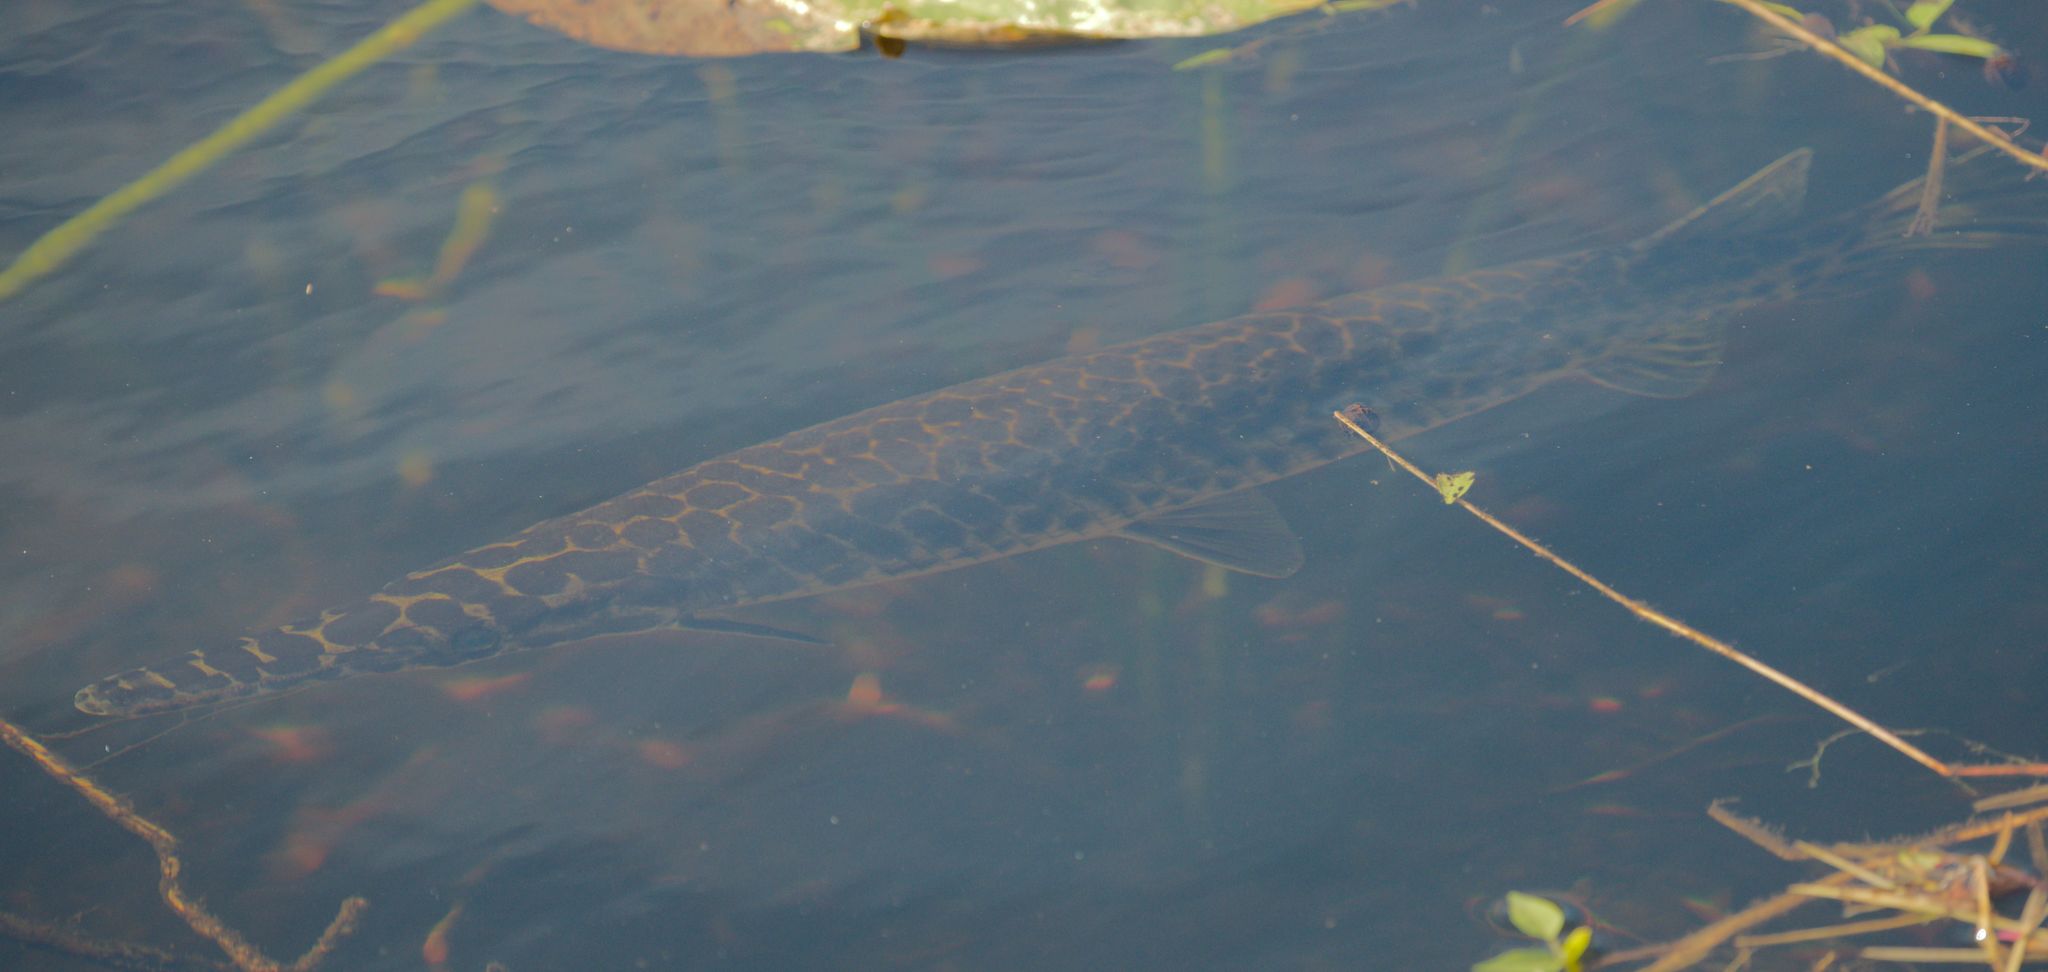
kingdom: Animalia
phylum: Chordata
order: Lepisosteiformes
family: Lepisosteidae
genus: Lepisosteus
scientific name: Lepisosteus platyrhincus
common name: Florida gar
